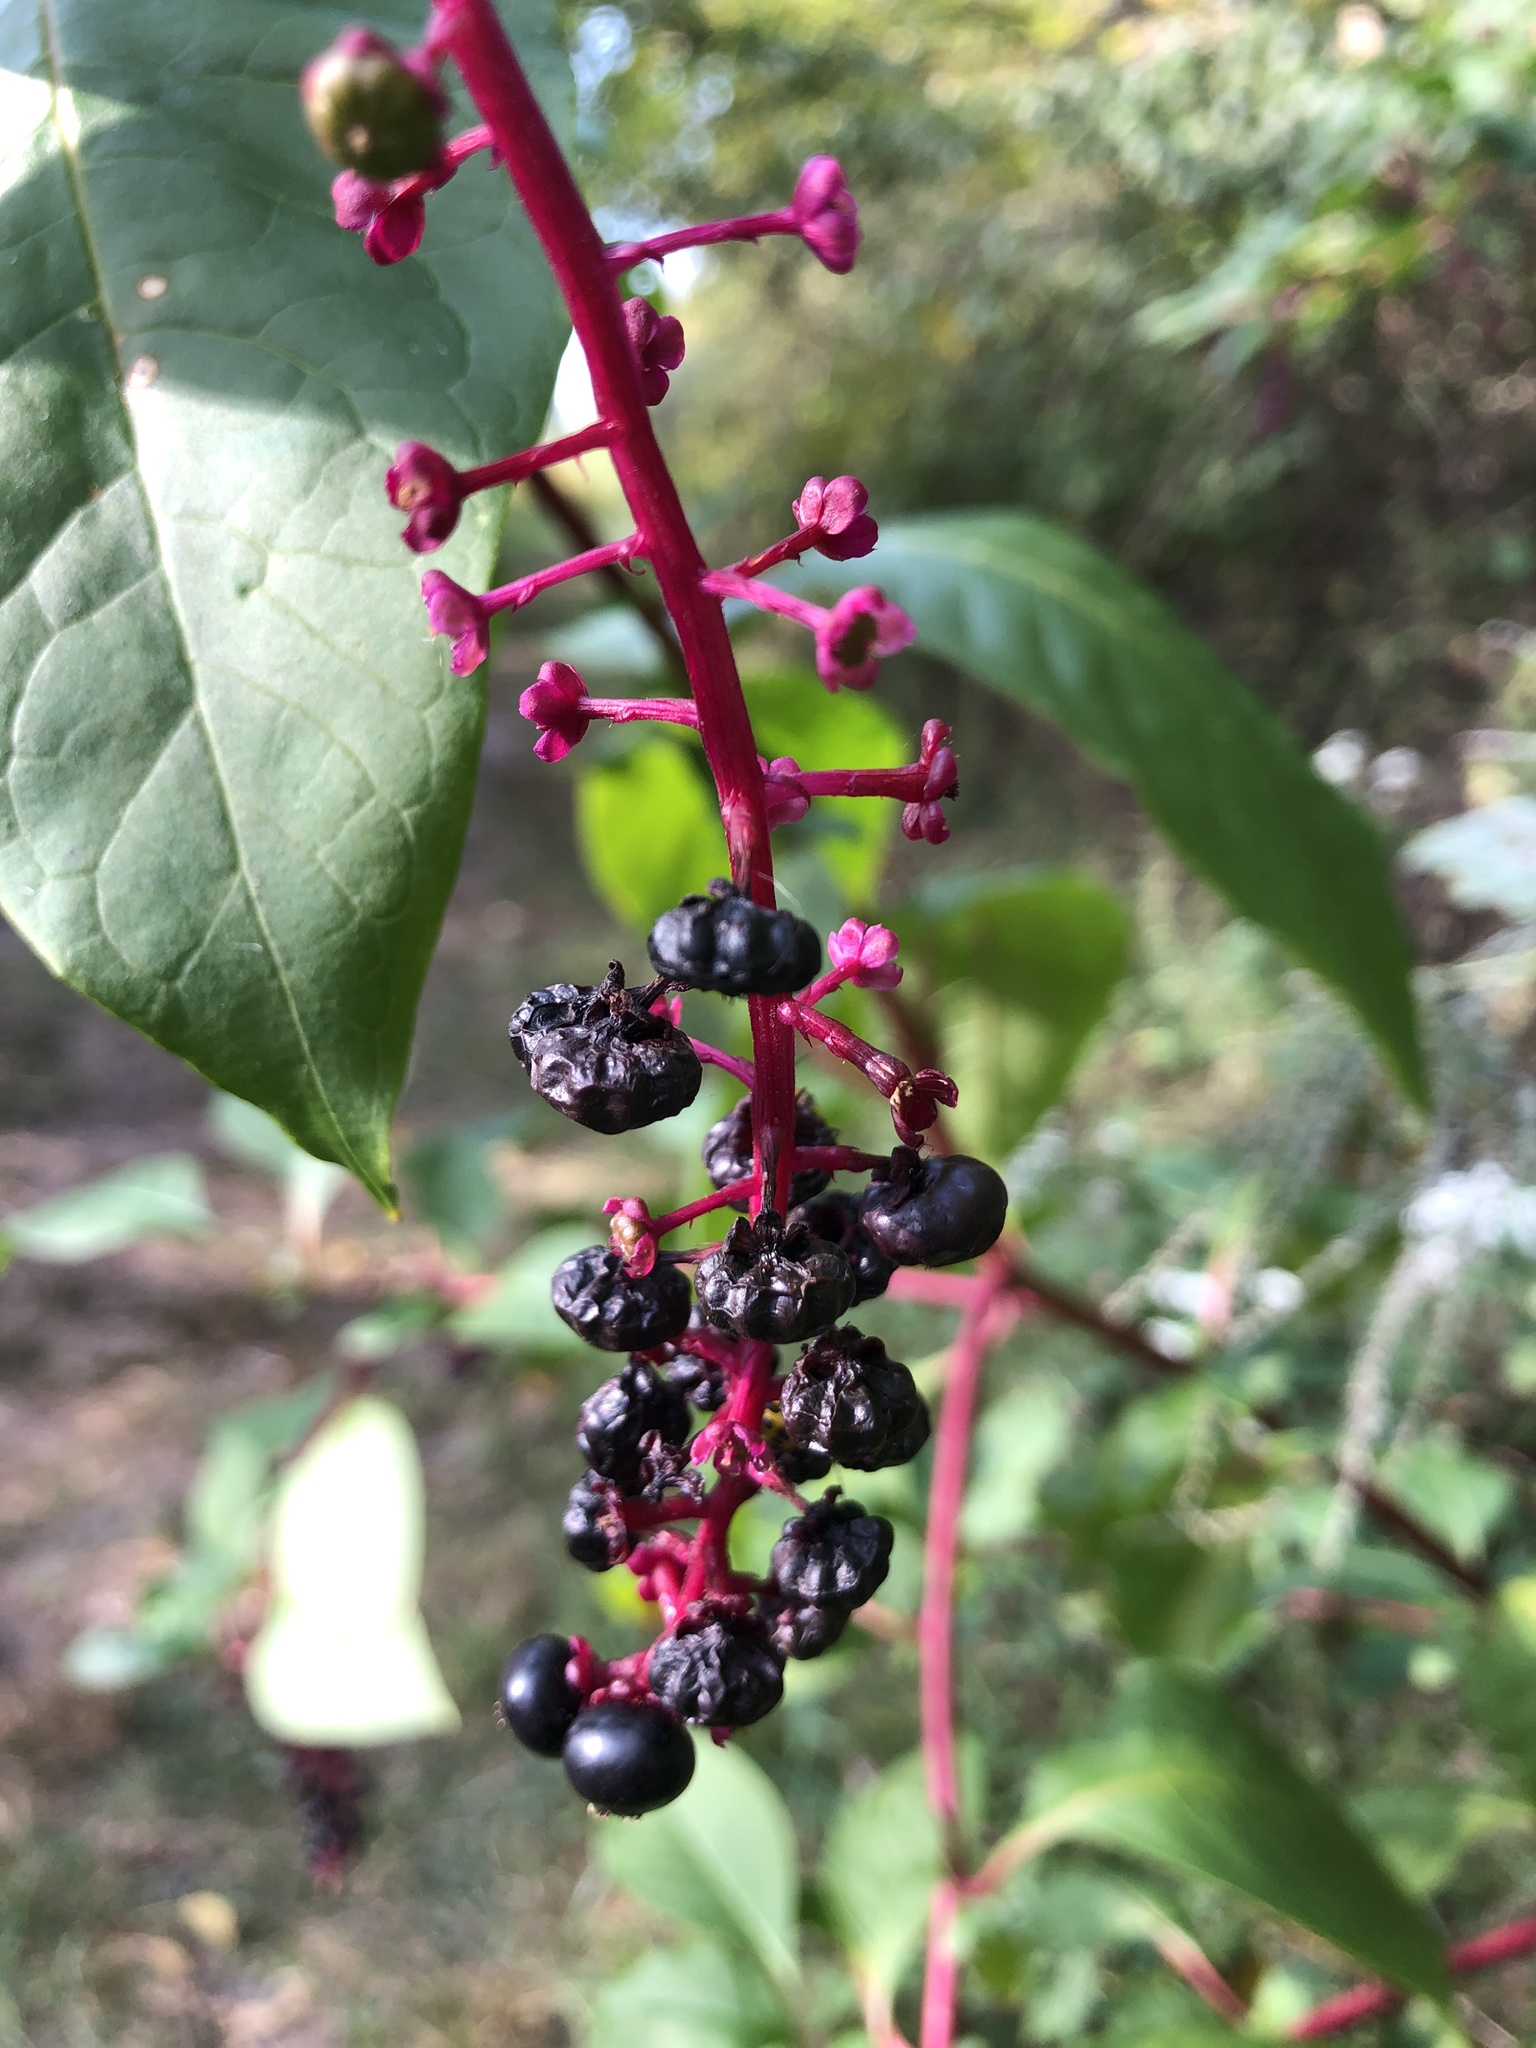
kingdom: Plantae
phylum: Tracheophyta
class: Magnoliopsida
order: Caryophyllales
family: Phytolaccaceae
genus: Phytolacca
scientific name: Phytolacca americana
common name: American pokeweed
